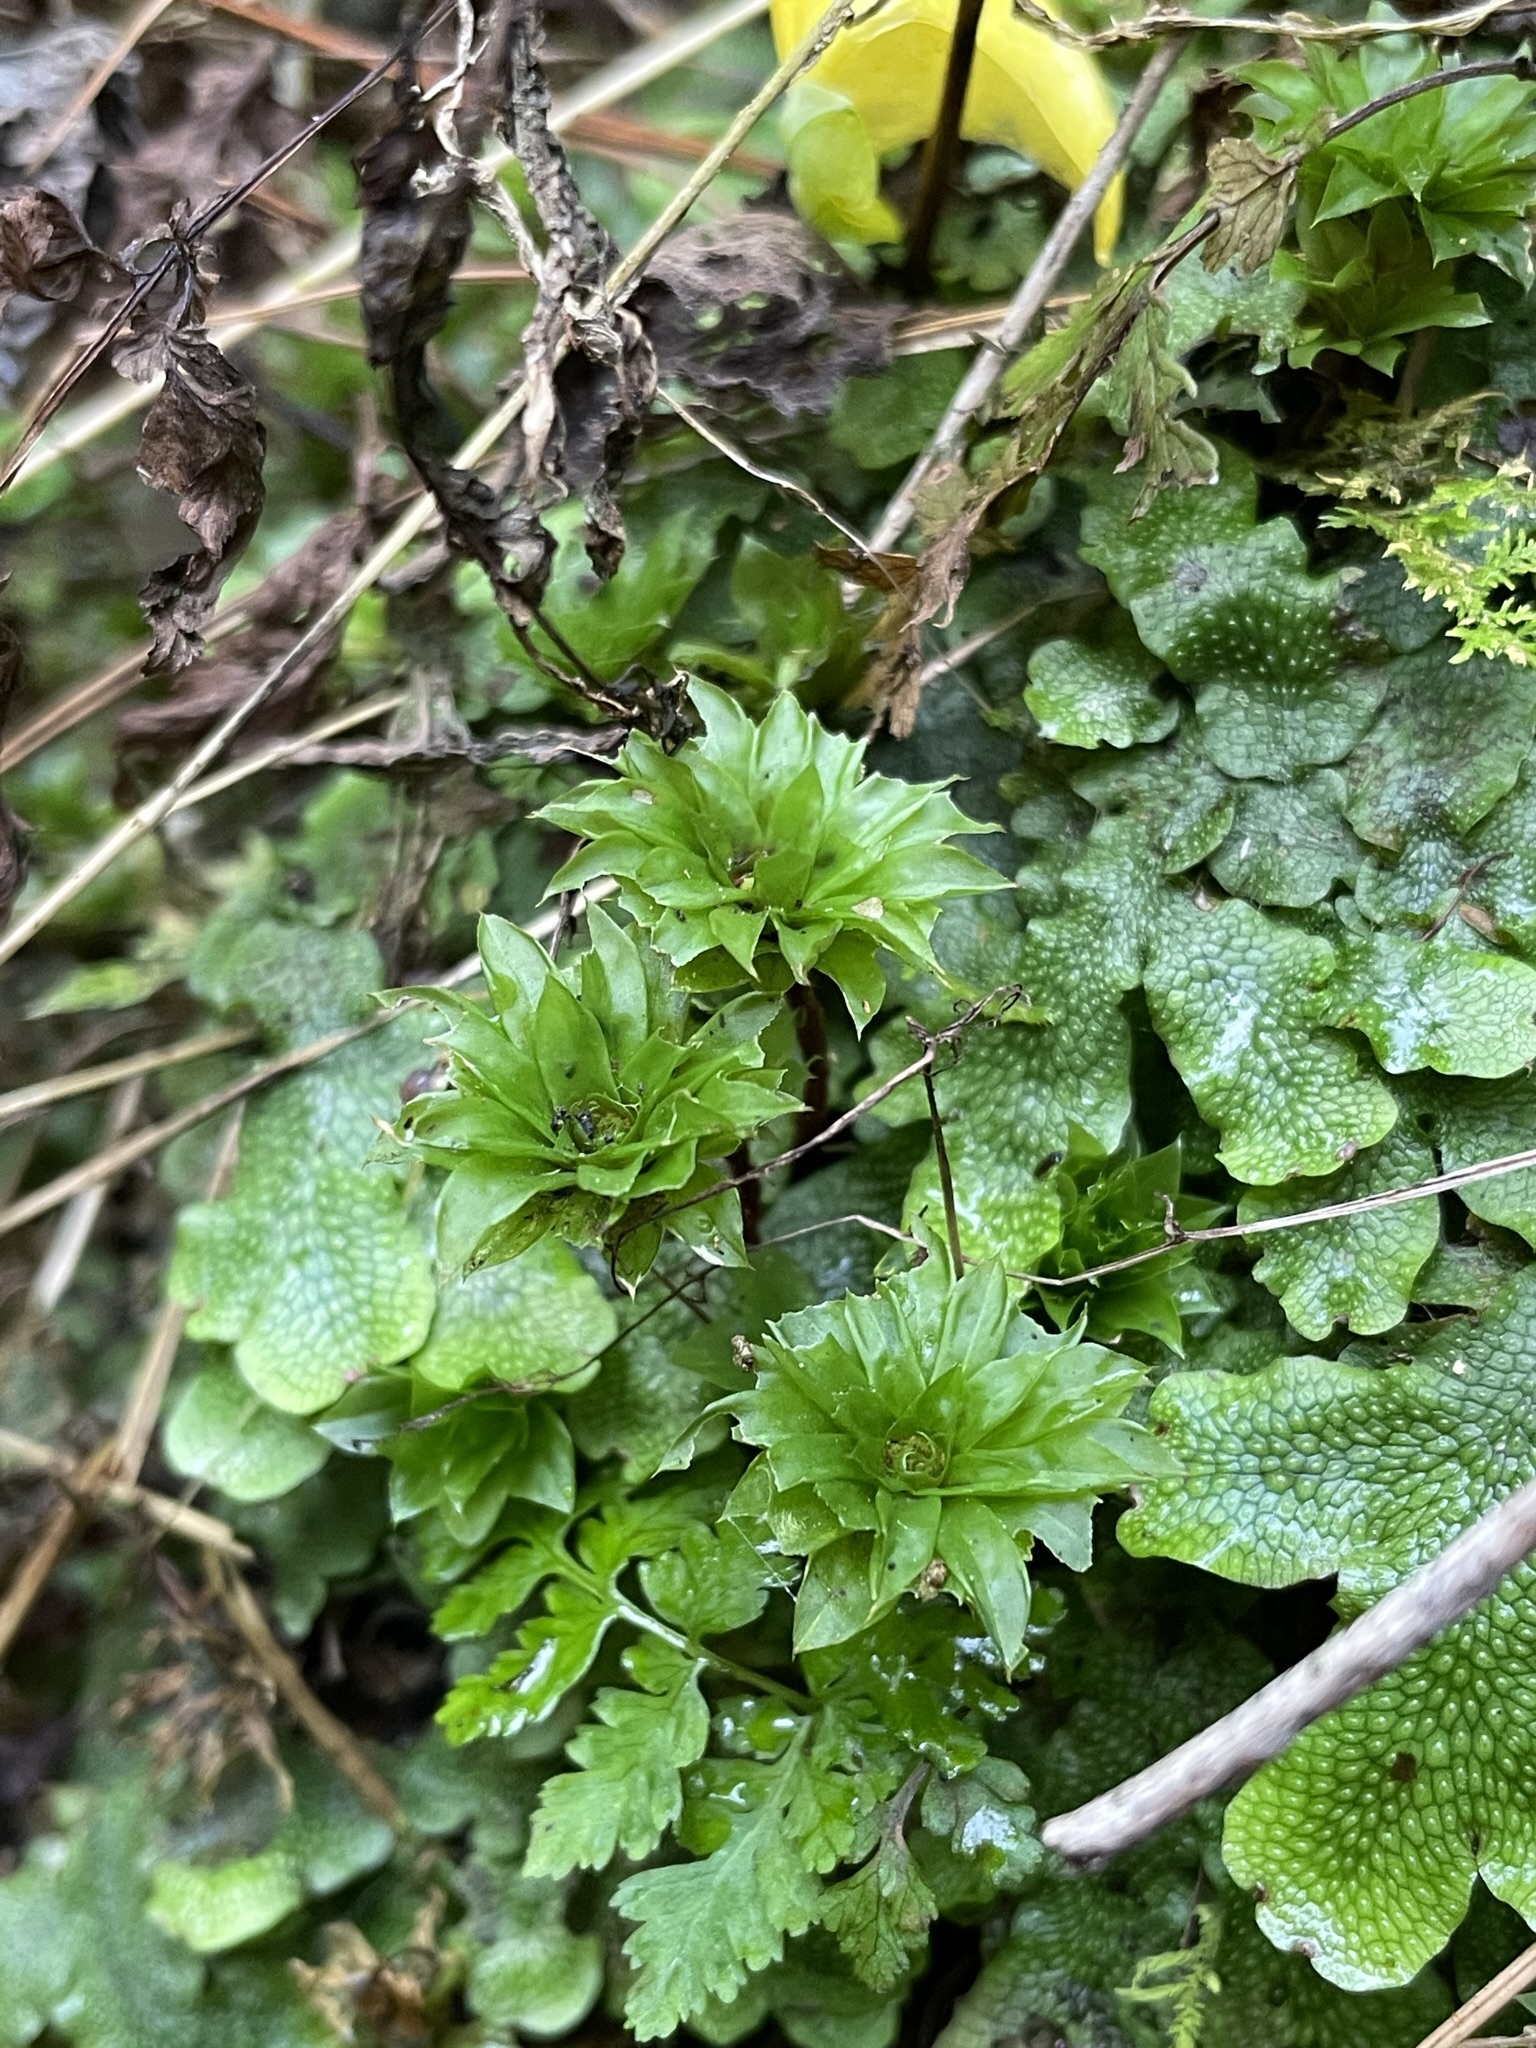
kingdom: Plantae
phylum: Bryophyta
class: Bryopsida
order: Bryales
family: Bryaceae
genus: Rhodobryum
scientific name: Rhodobryum ontariense
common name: Ontario rhodobryum moss
